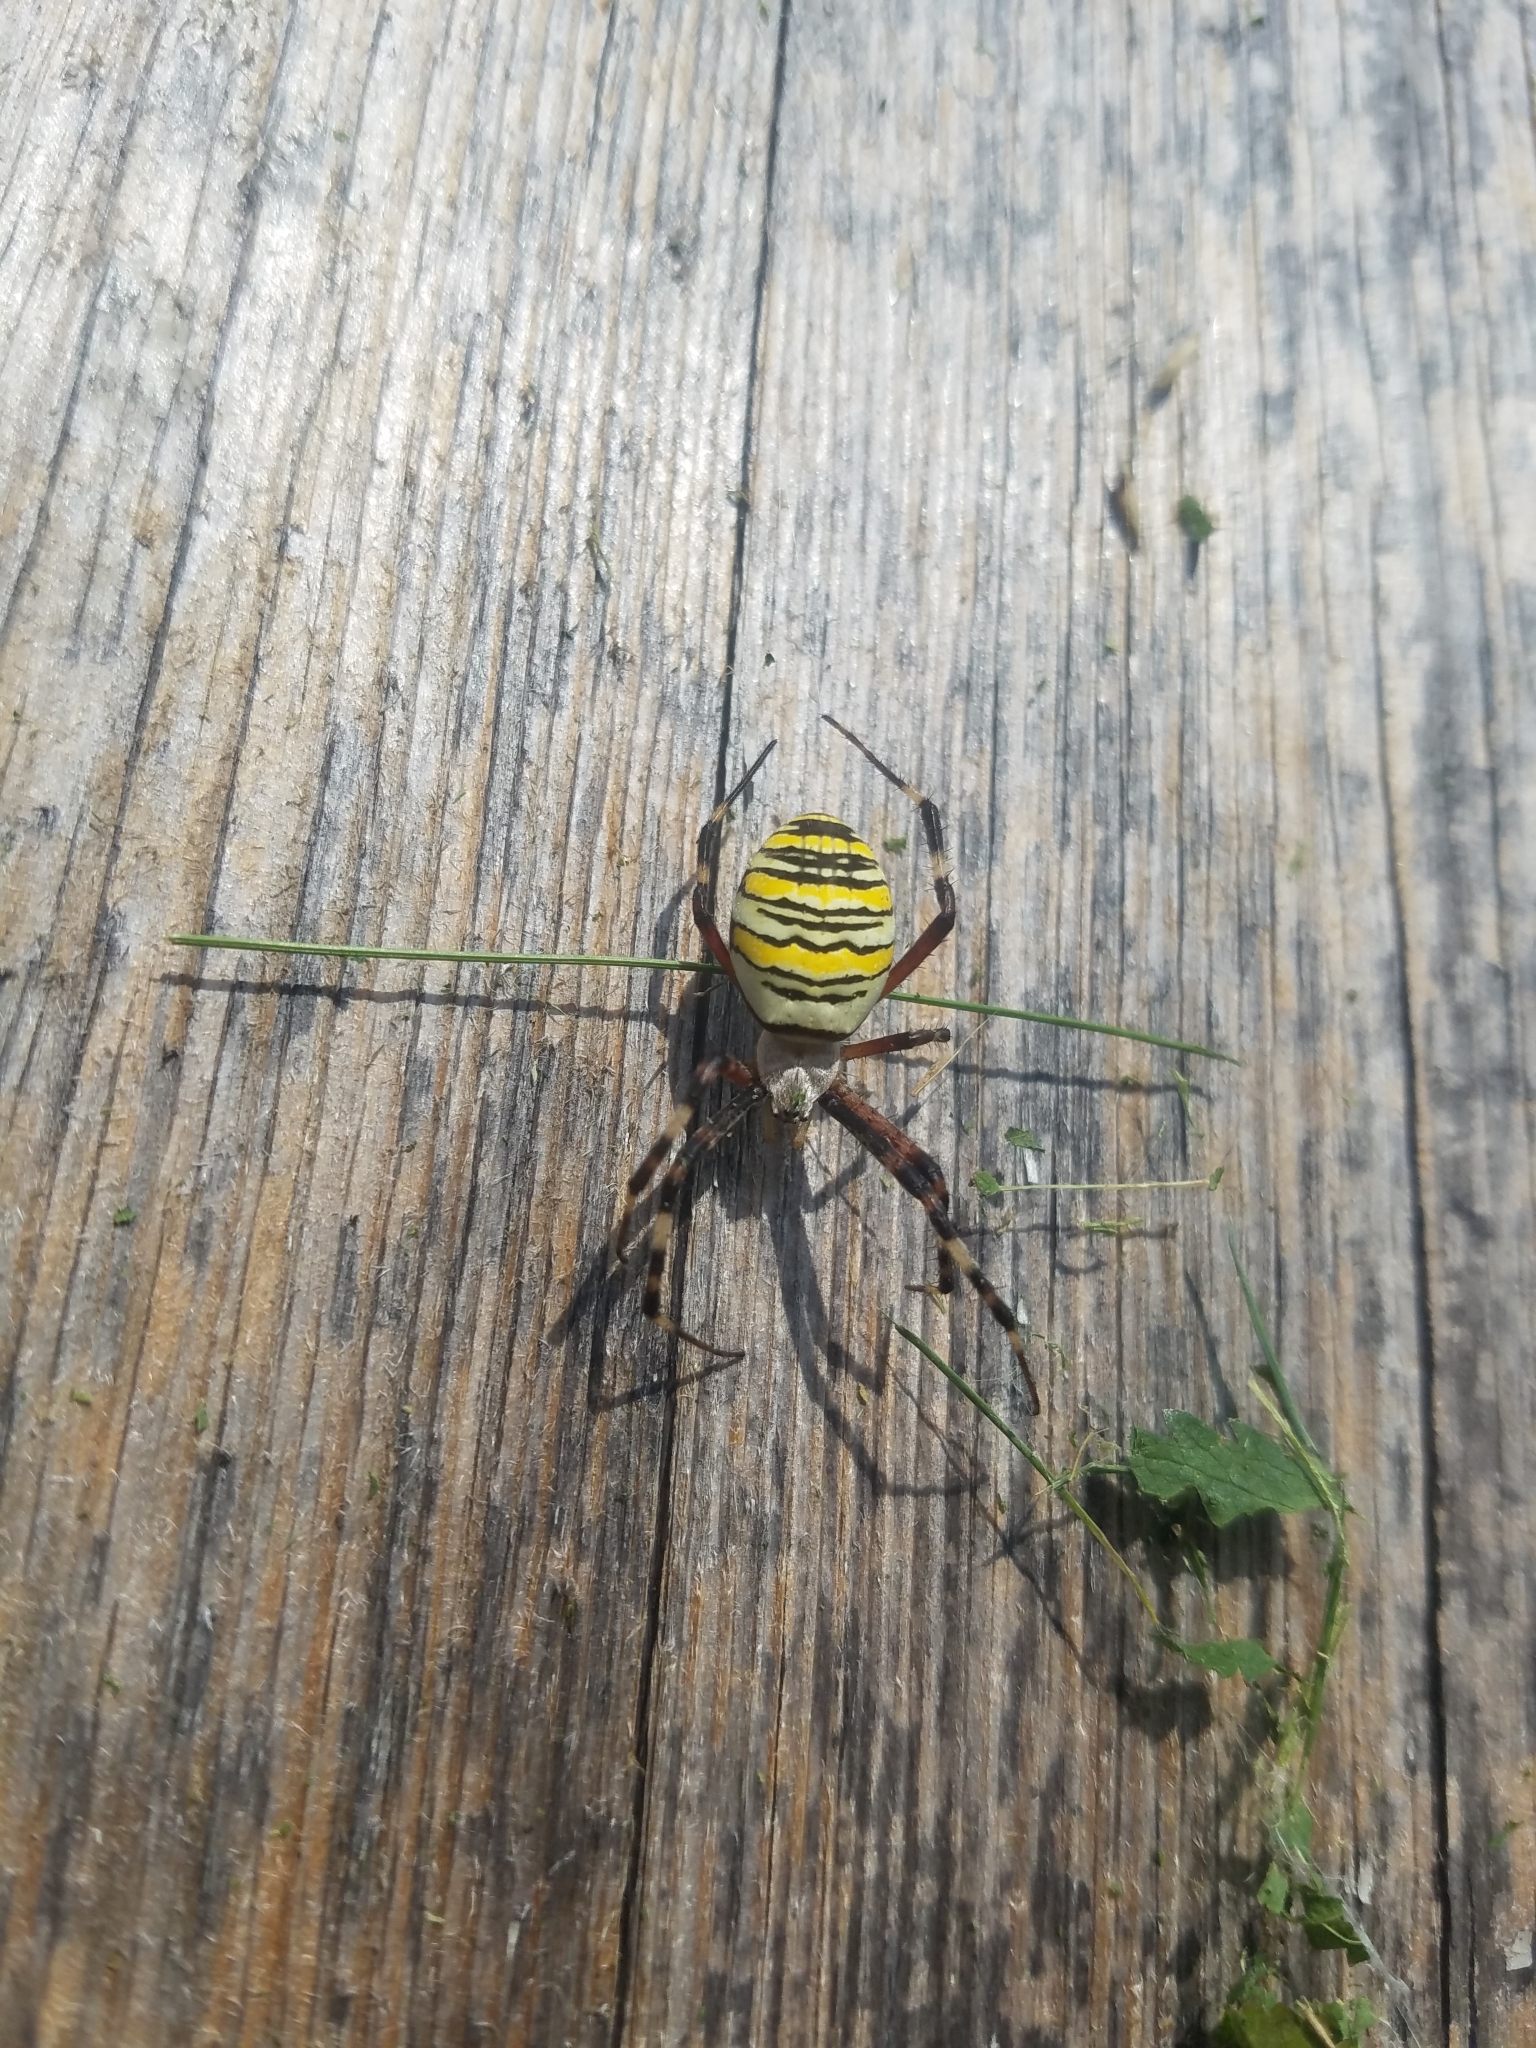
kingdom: Animalia
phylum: Arthropoda
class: Arachnida
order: Araneae
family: Araneidae
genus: Argiope
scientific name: Argiope bruennichi
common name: Wasp spider
